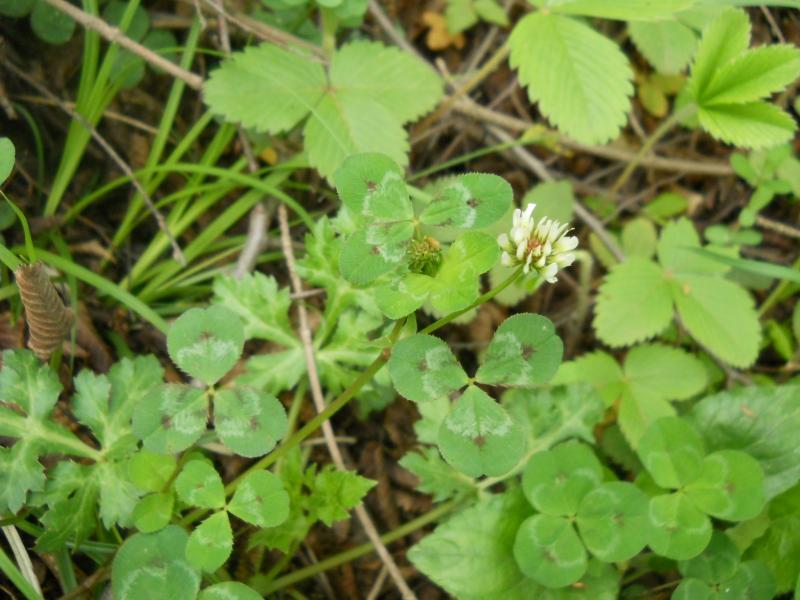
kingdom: Plantae
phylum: Tracheophyta
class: Magnoliopsida
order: Fabales
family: Fabaceae
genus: Trifolium
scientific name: Trifolium repens
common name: White clover
